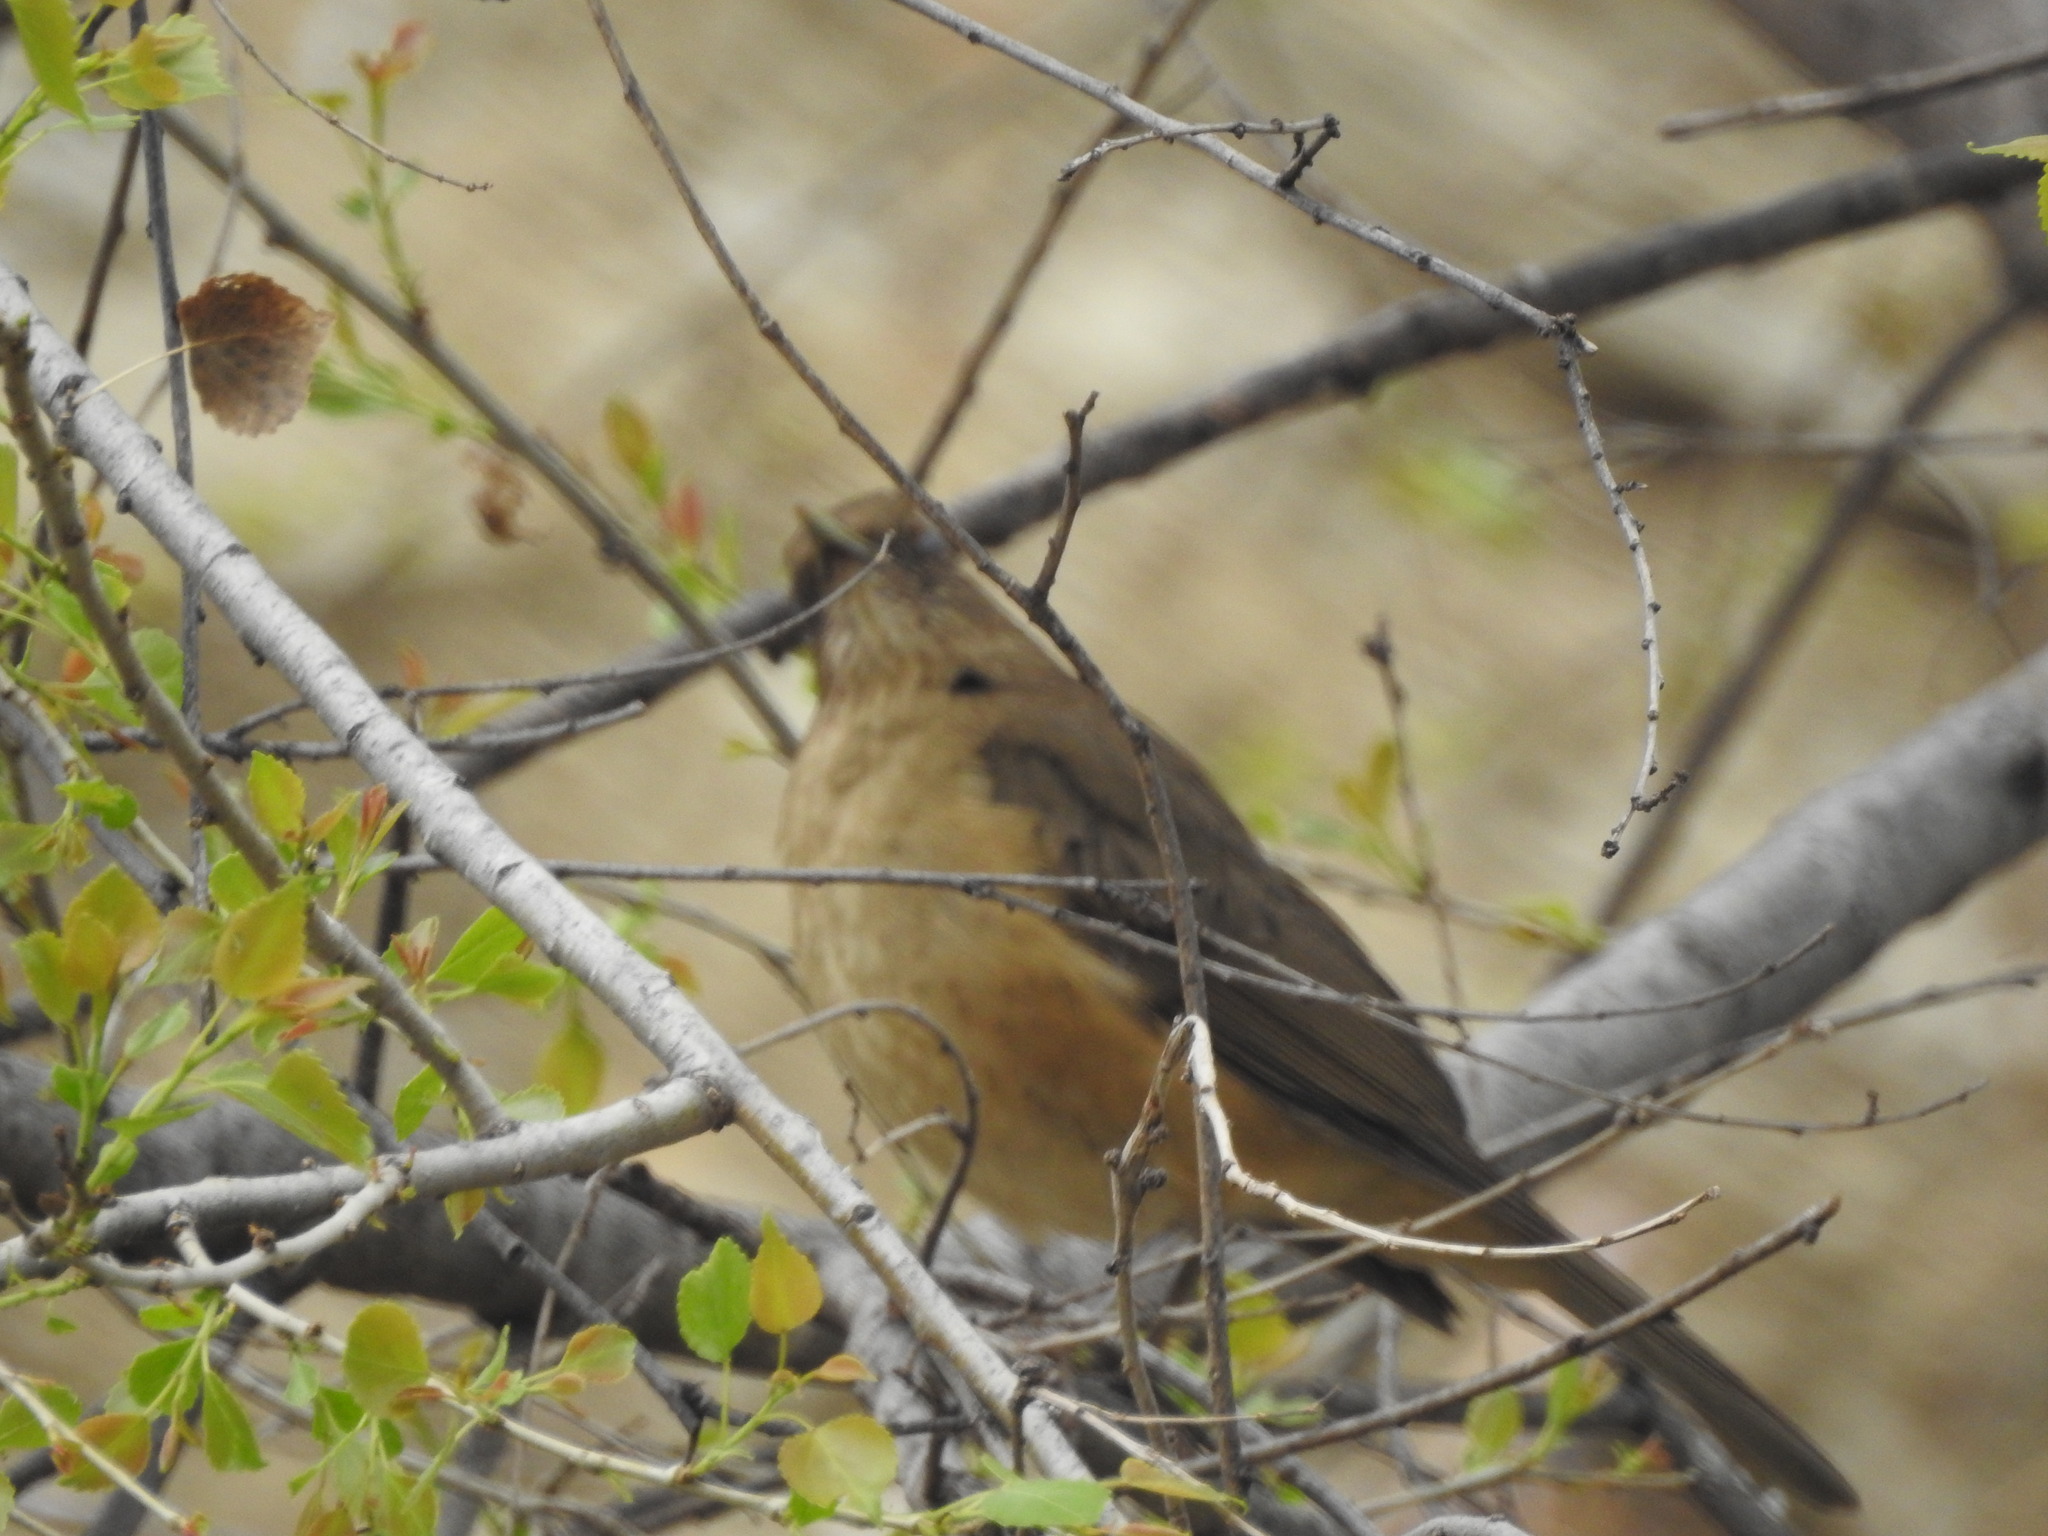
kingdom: Animalia
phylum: Chordata
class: Aves
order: Passeriformes
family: Turdidae
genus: Turdus
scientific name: Turdus grayi
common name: Clay-colored thrush
